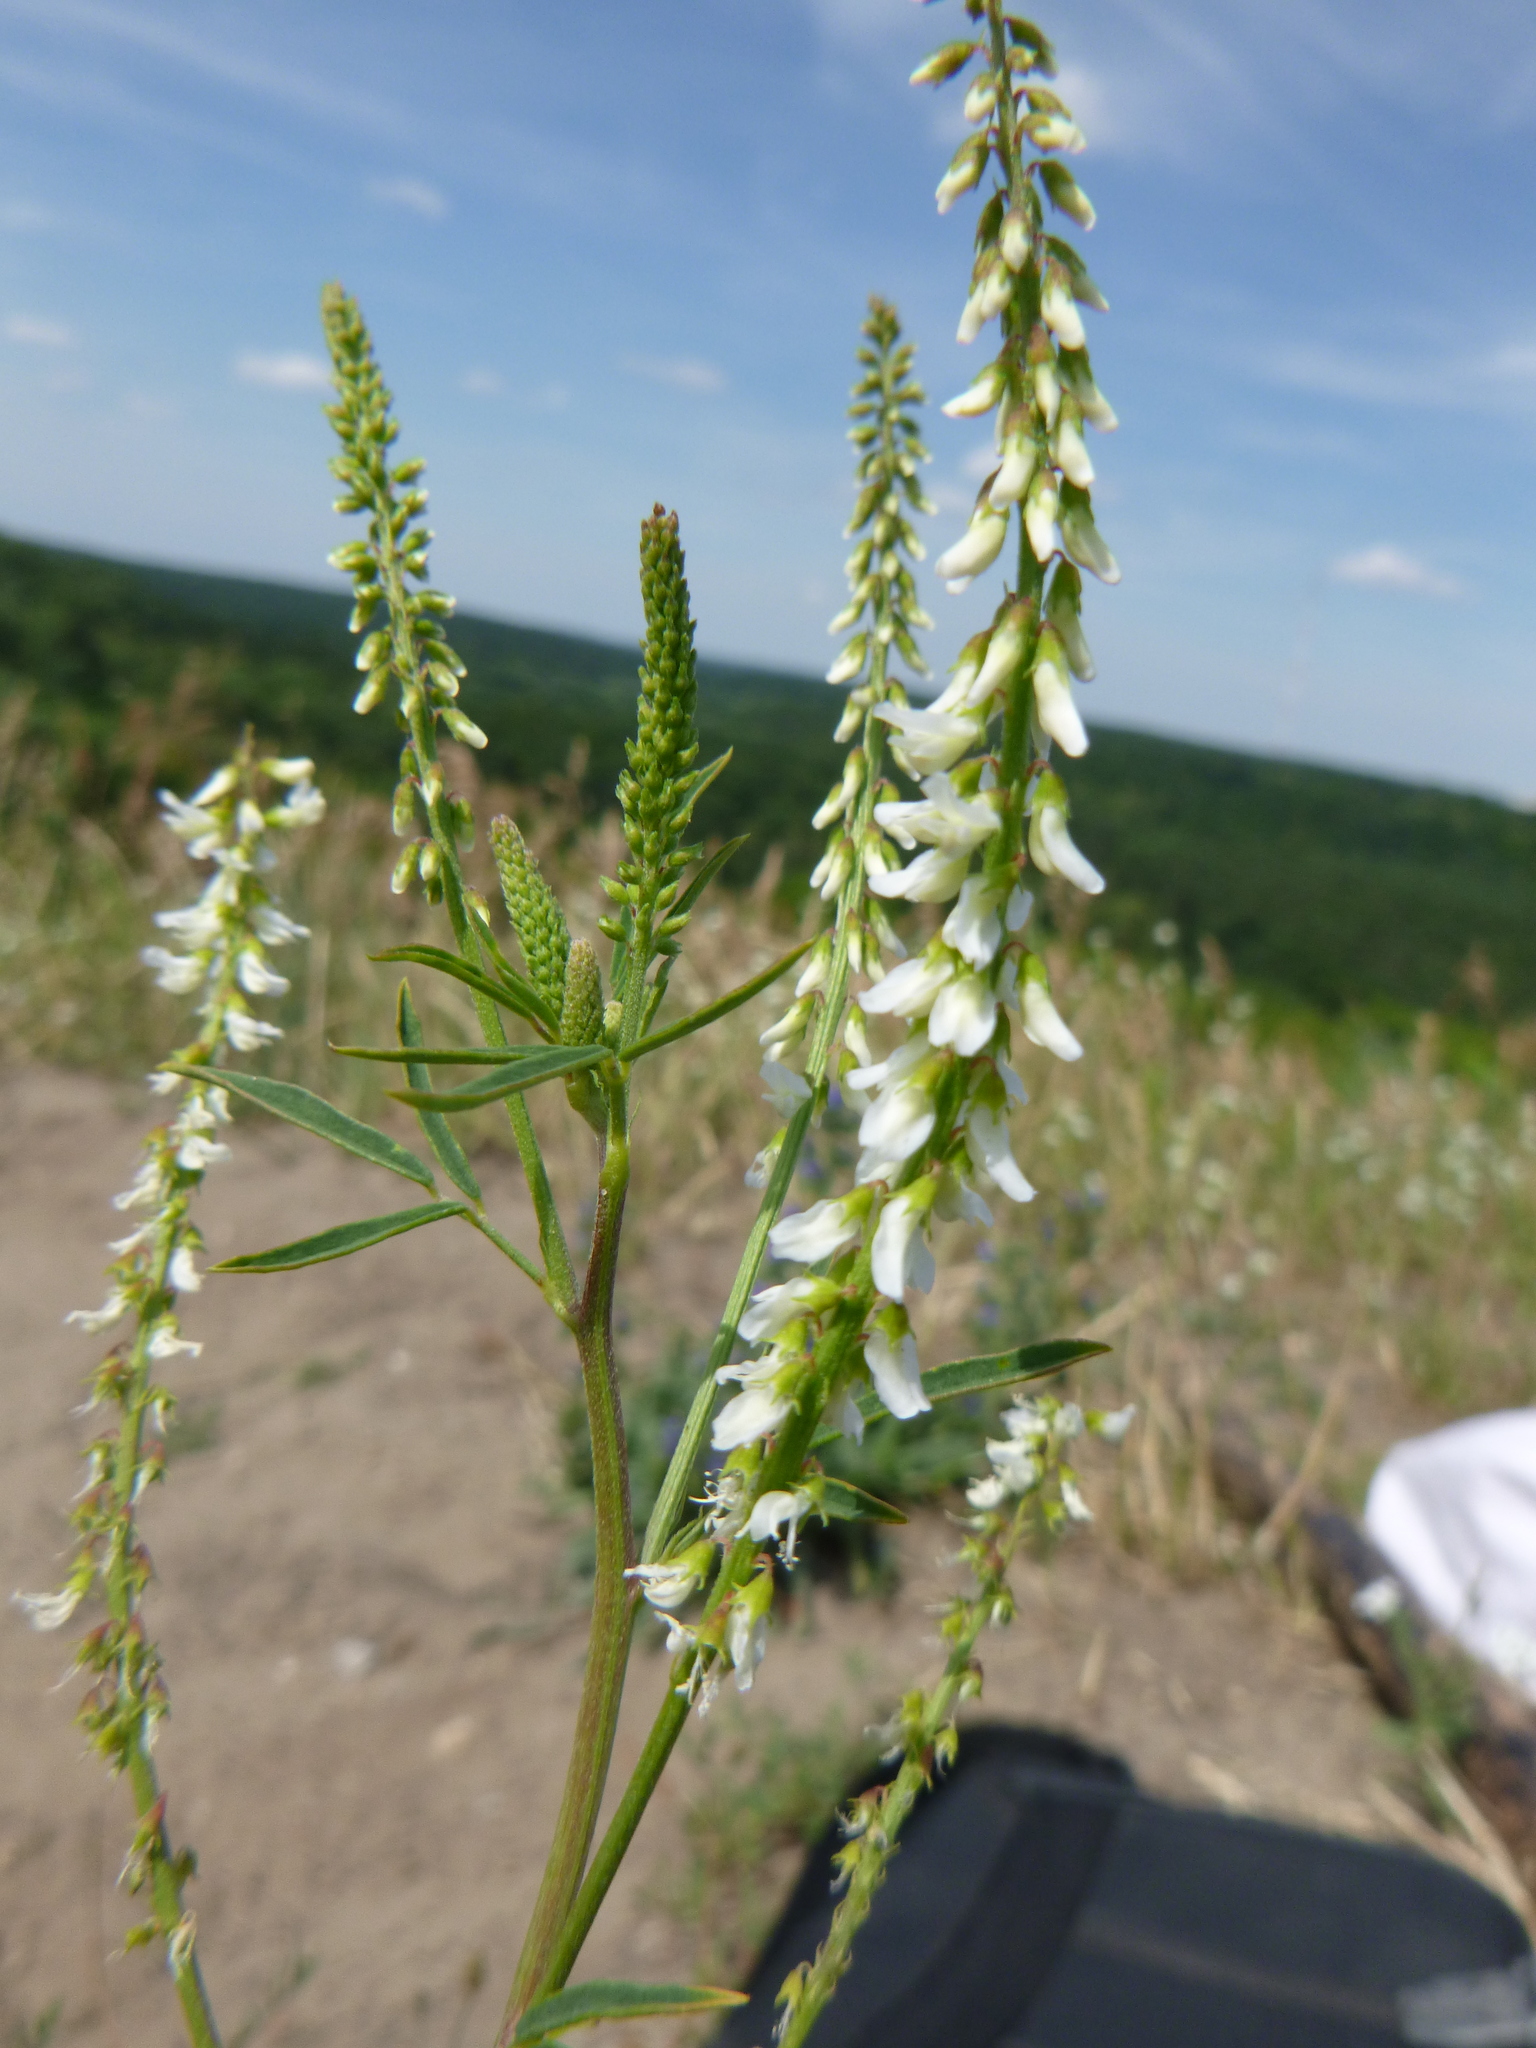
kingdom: Plantae
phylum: Tracheophyta
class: Magnoliopsida
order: Fabales
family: Fabaceae
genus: Melilotus
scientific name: Melilotus albus
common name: White melilot
